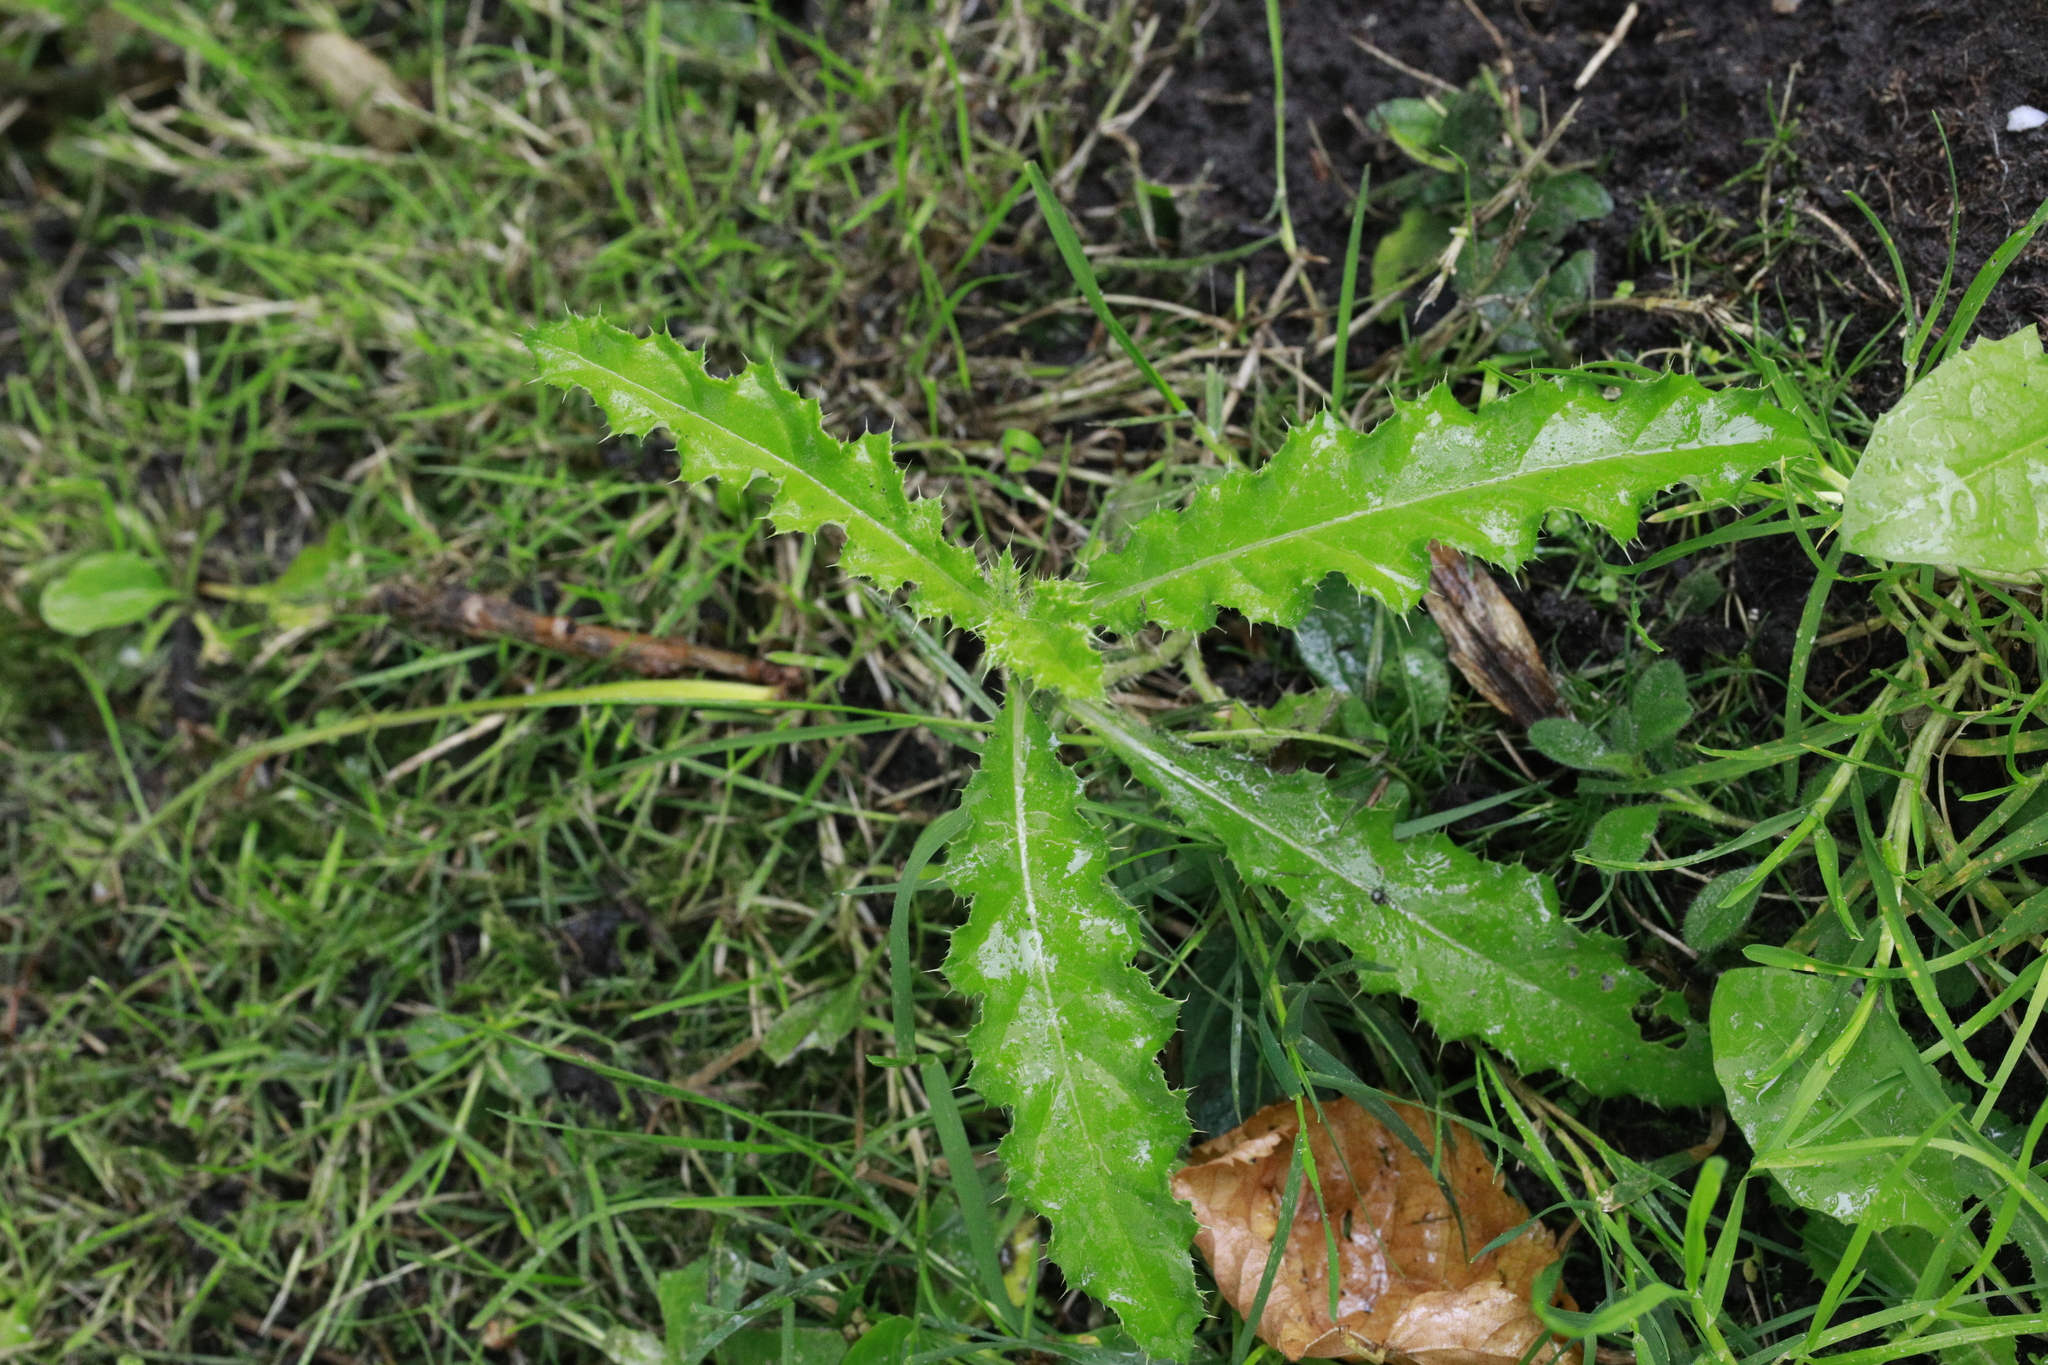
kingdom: Plantae
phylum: Tracheophyta
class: Magnoliopsida
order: Asterales
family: Asteraceae
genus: Cirsium
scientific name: Cirsium arvense
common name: Creeping thistle
